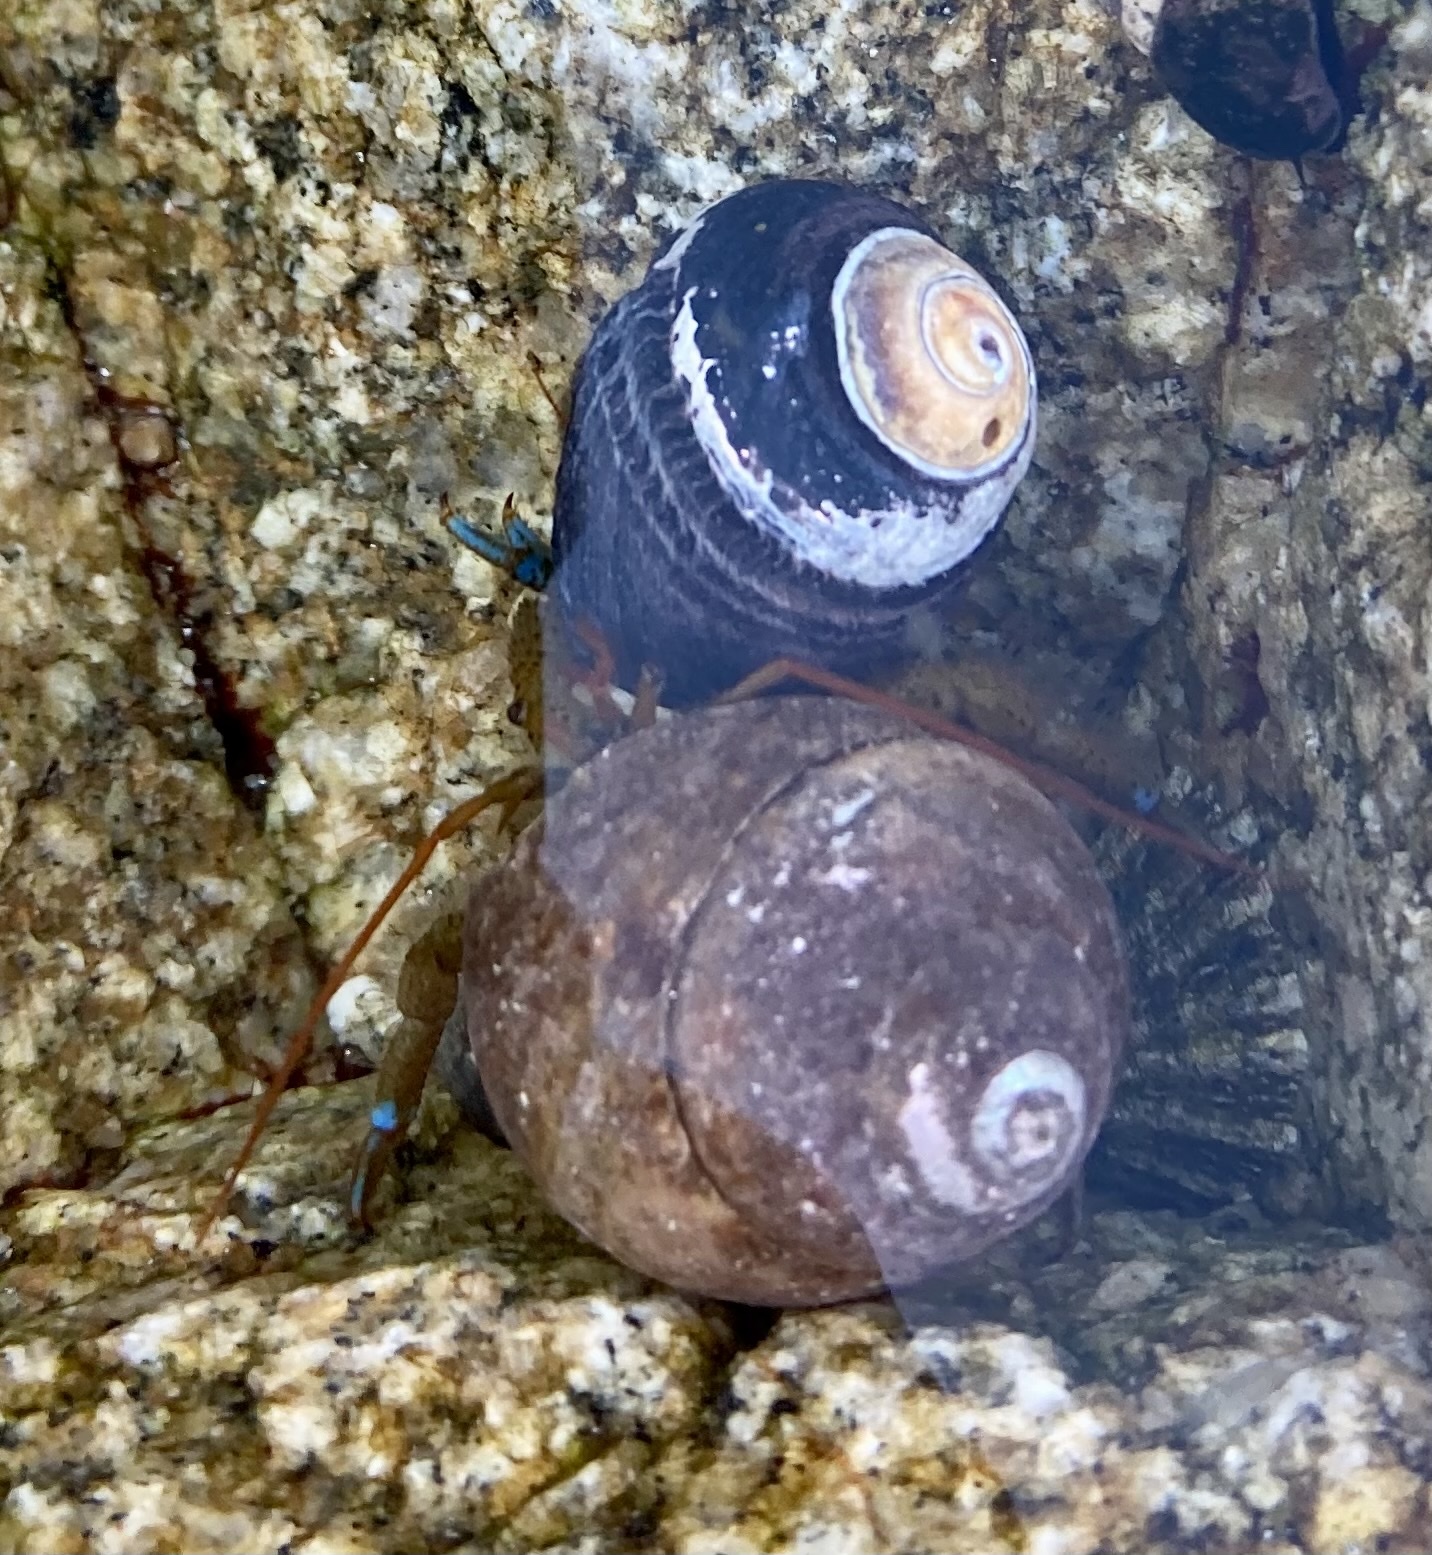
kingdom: Animalia
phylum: Arthropoda
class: Malacostraca
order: Decapoda
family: Paguridae
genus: Pagurus
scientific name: Pagurus samuelis
